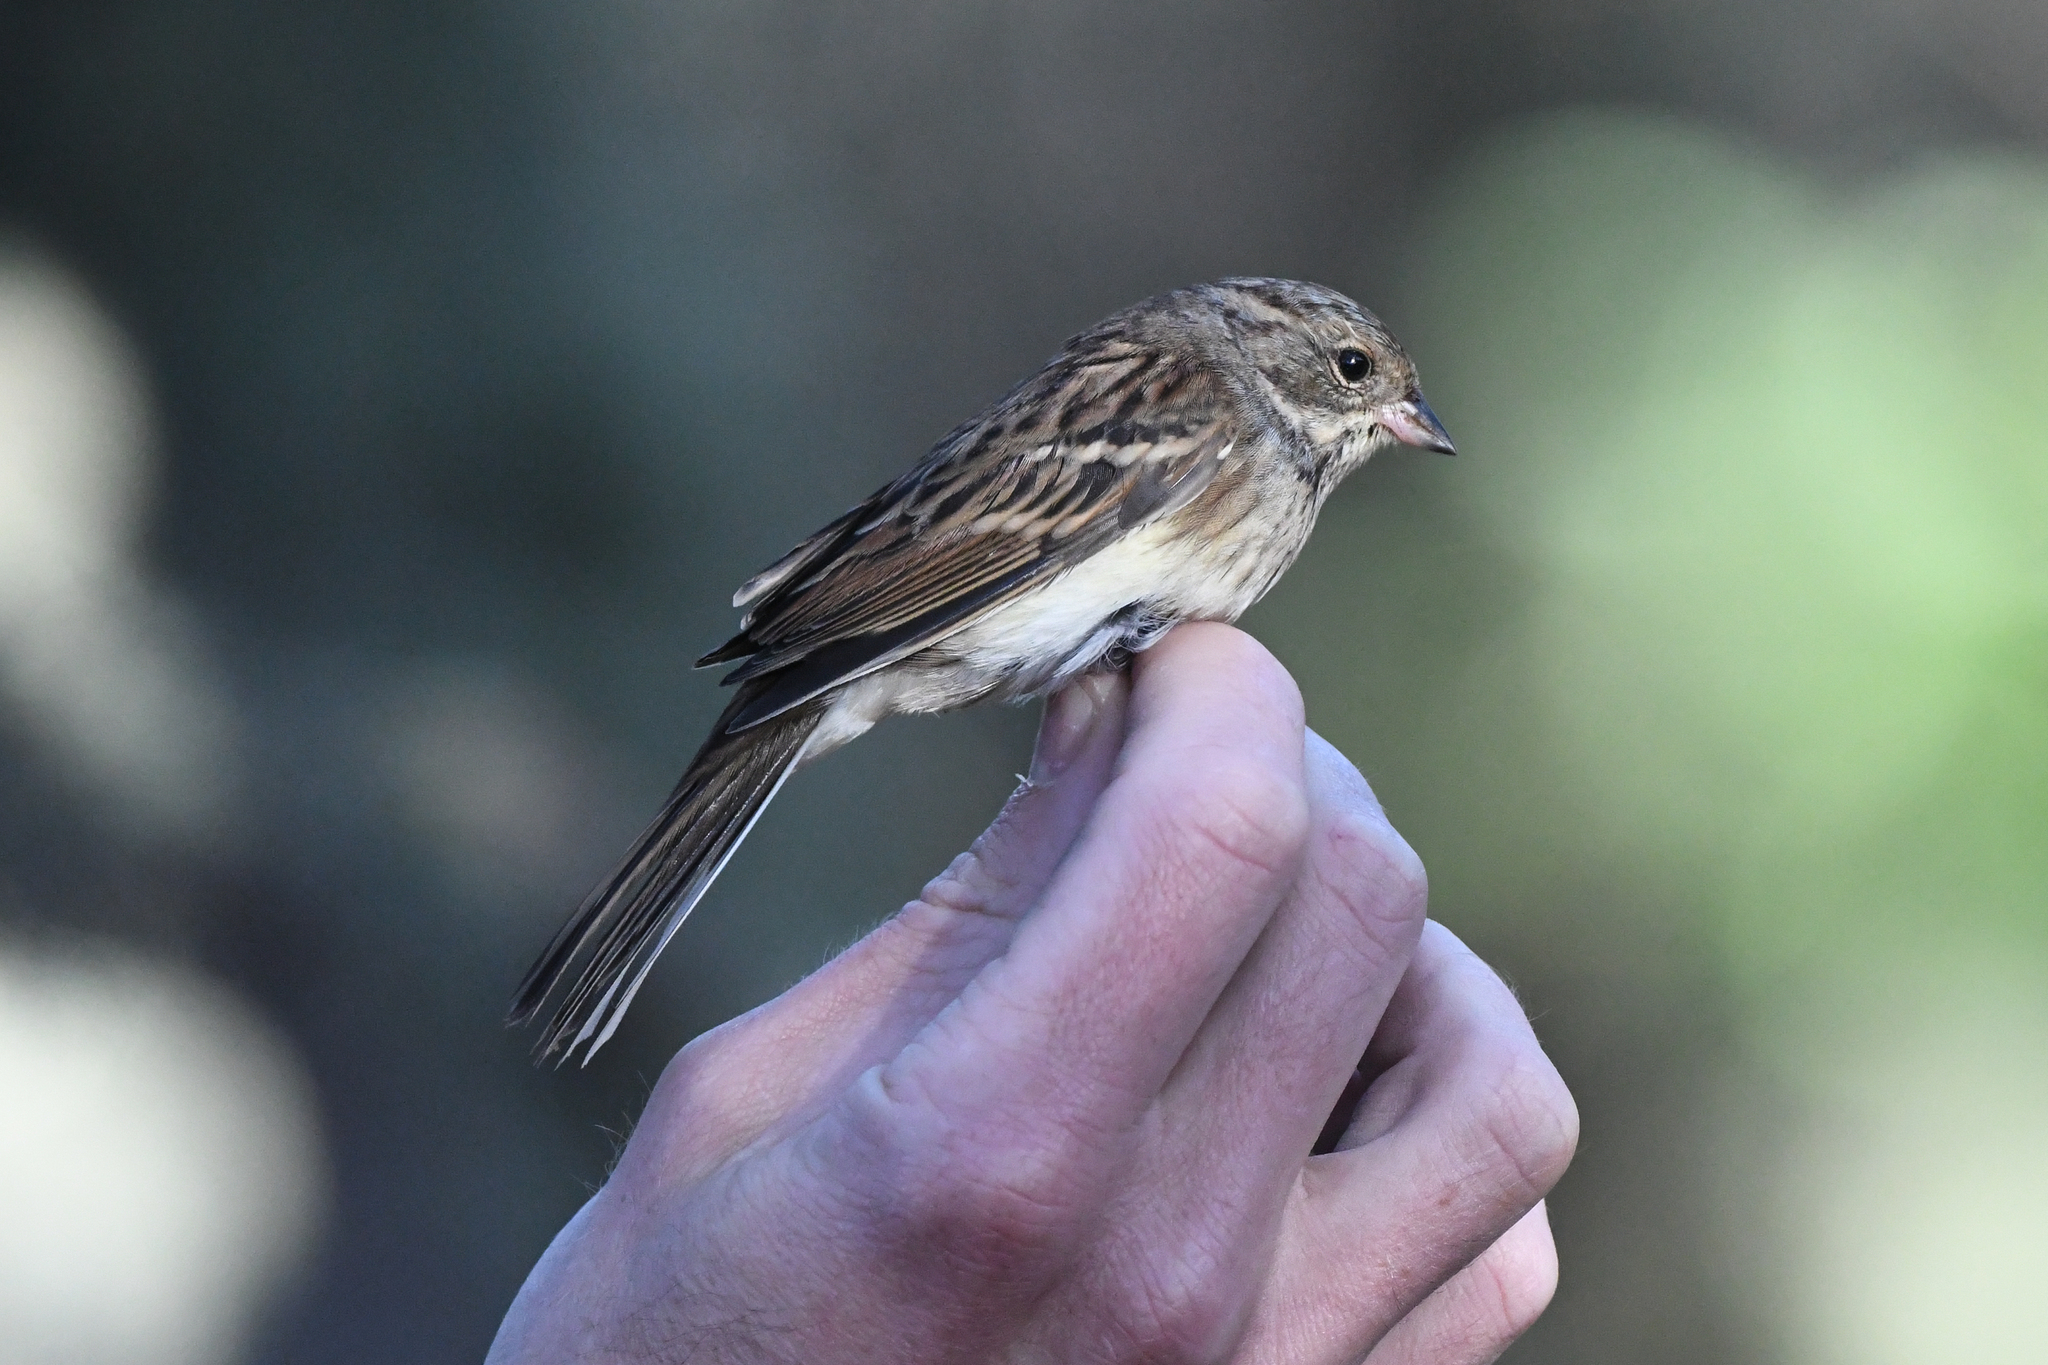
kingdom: Animalia
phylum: Chordata
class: Aves
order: Passeriformes
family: Emberizidae
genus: Emberiza
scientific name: Emberiza spodocephala
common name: Black-faced bunting
